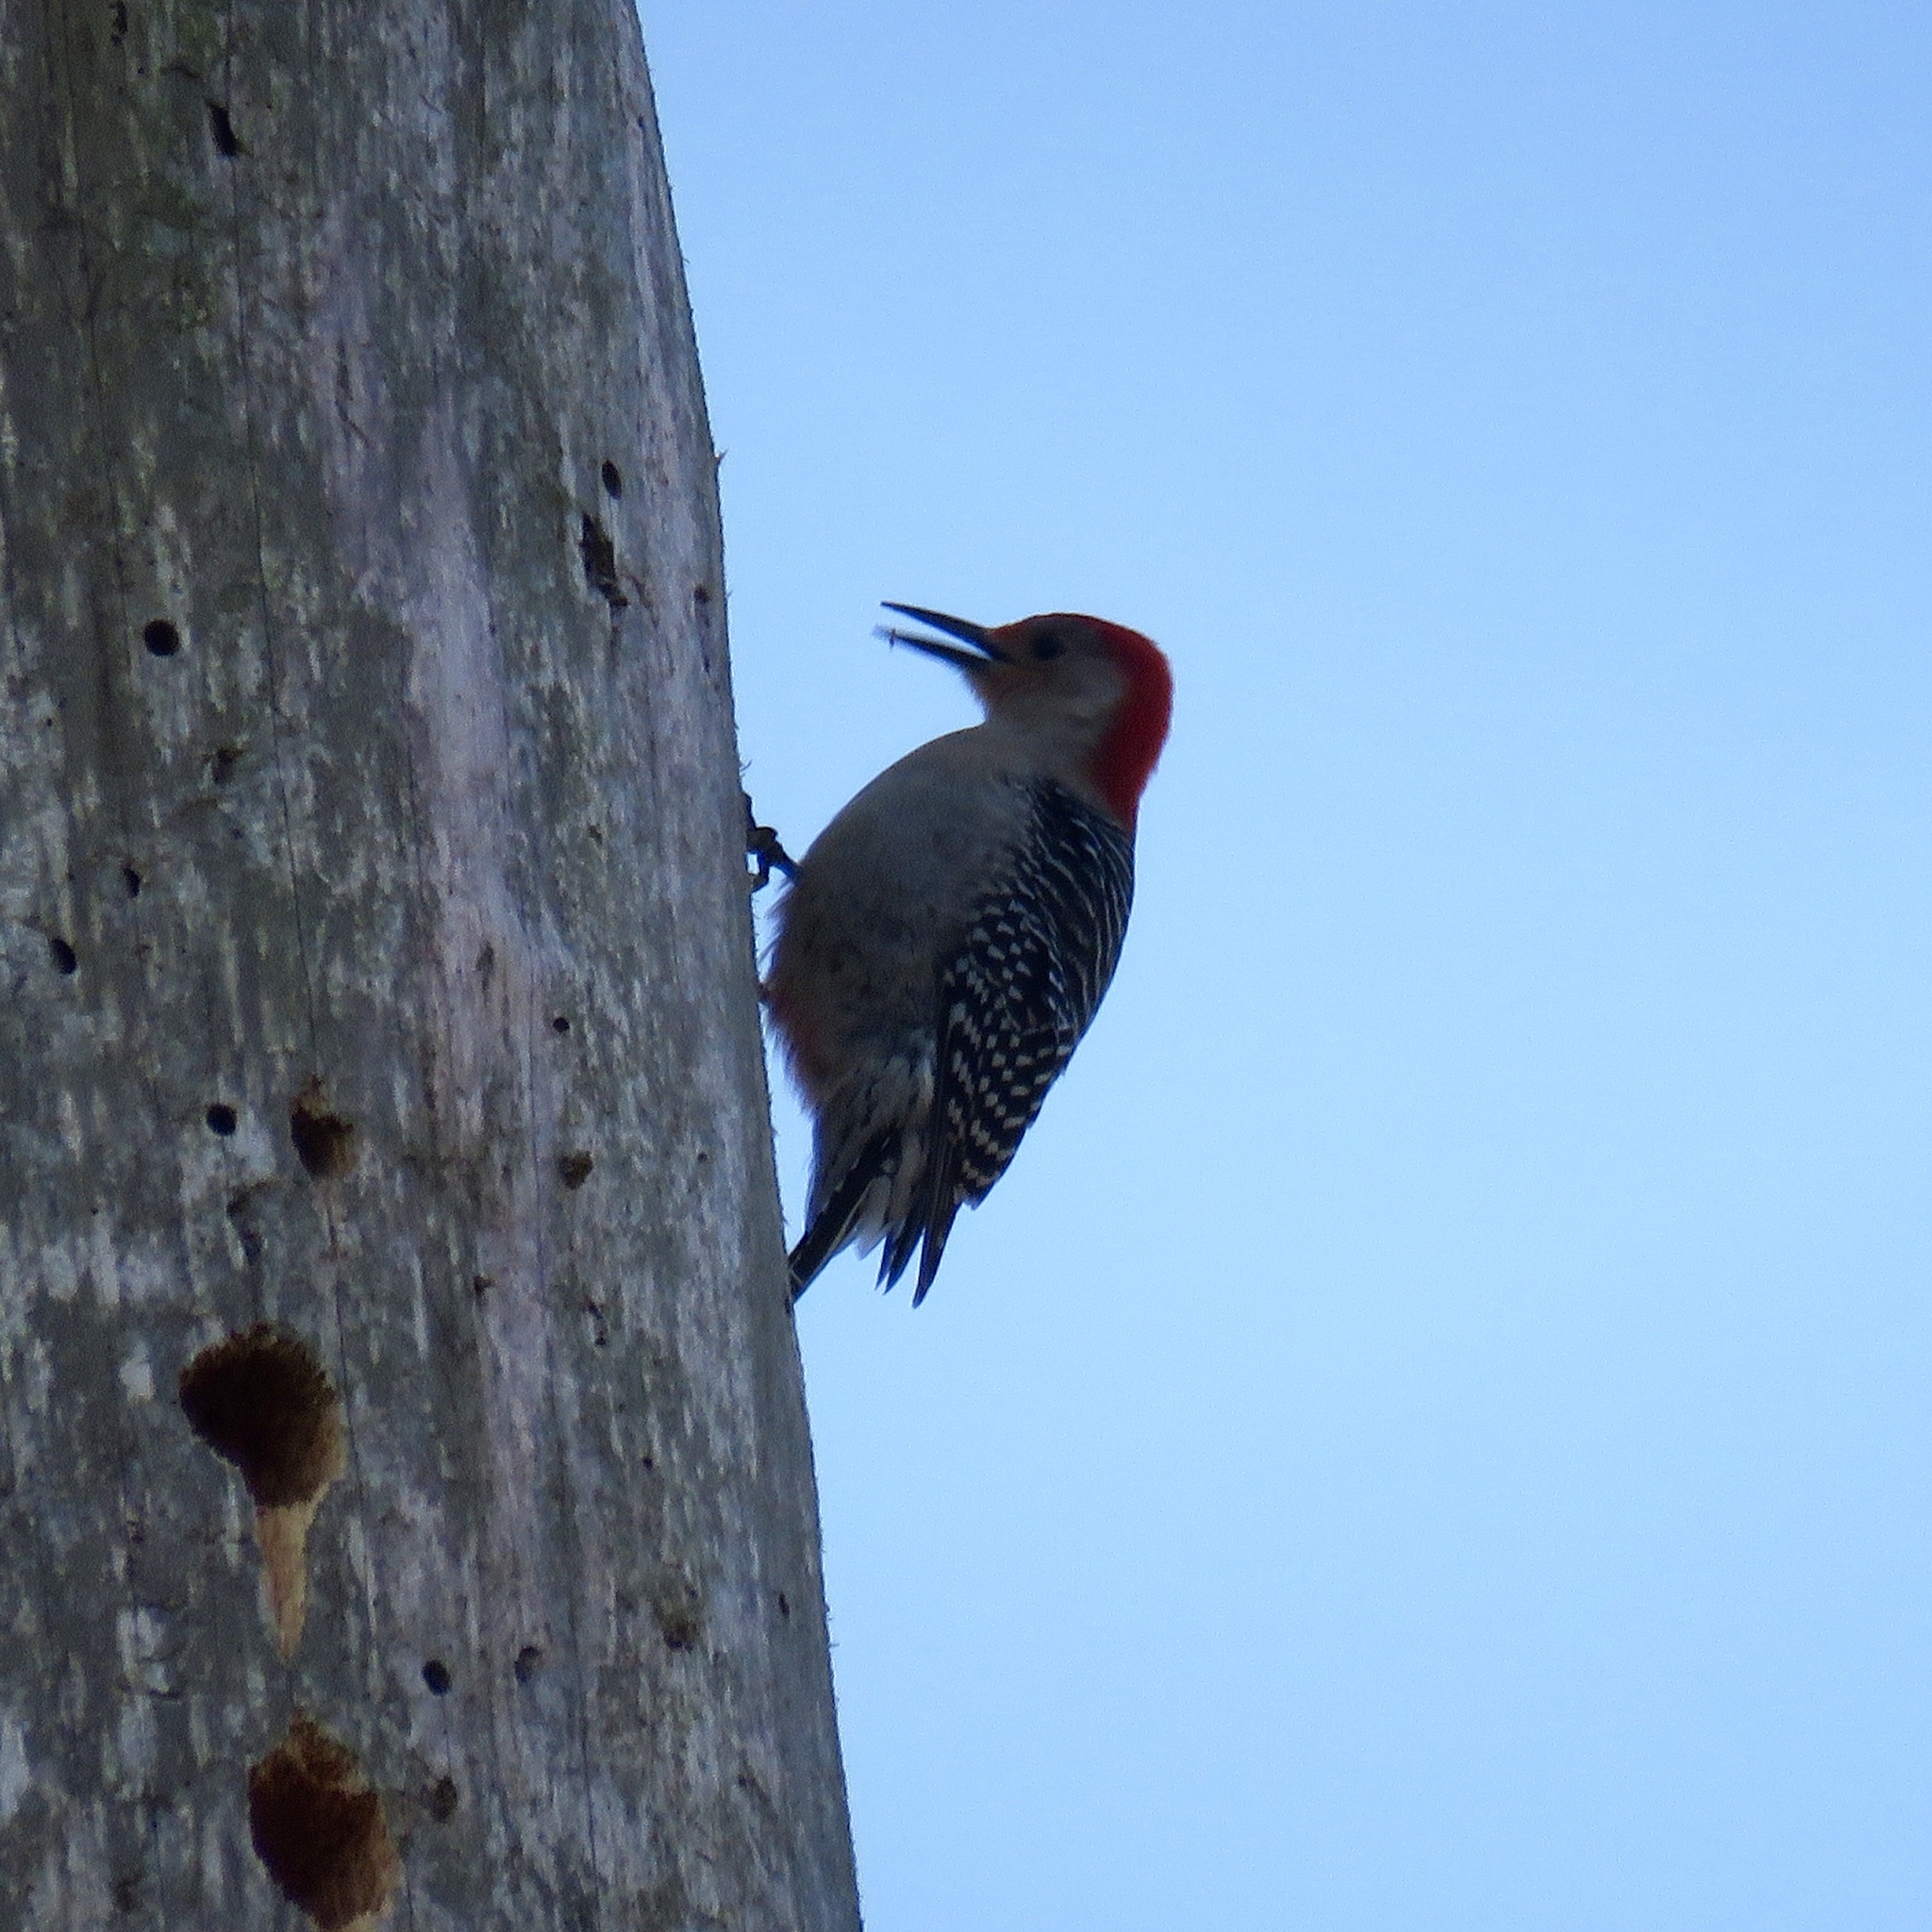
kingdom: Animalia
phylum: Chordata
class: Aves
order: Piciformes
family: Picidae
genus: Melanerpes
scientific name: Melanerpes carolinus
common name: Red-bellied woodpecker
